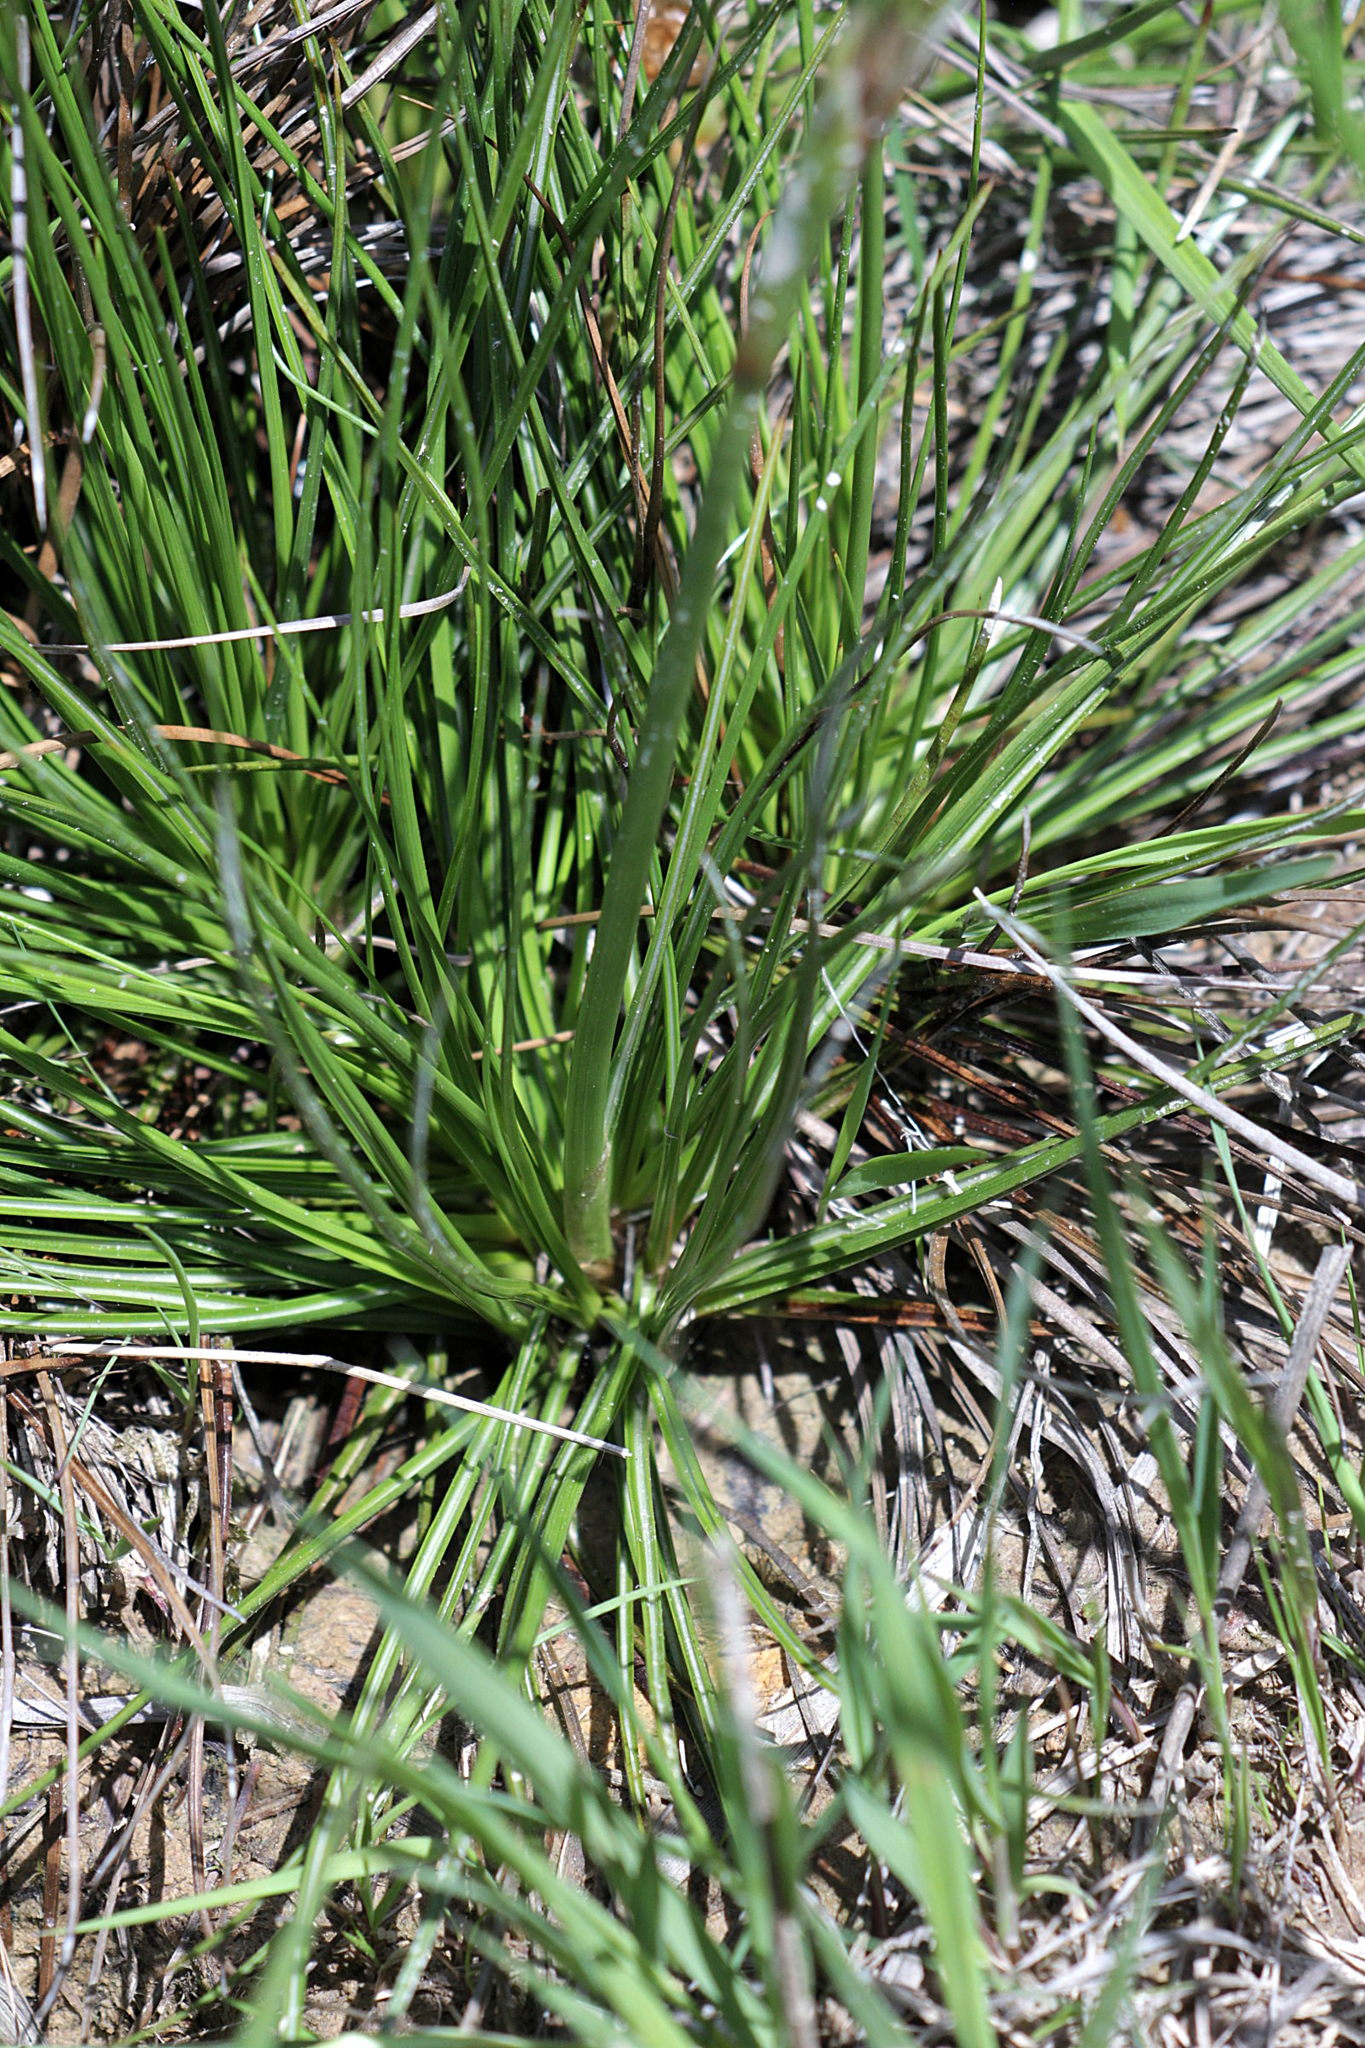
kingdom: Plantae
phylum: Tracheophyta
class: Liliopsida
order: Poales
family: Juncaceae
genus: Juncus
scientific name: Juncus squarrosus
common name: Heath rush
